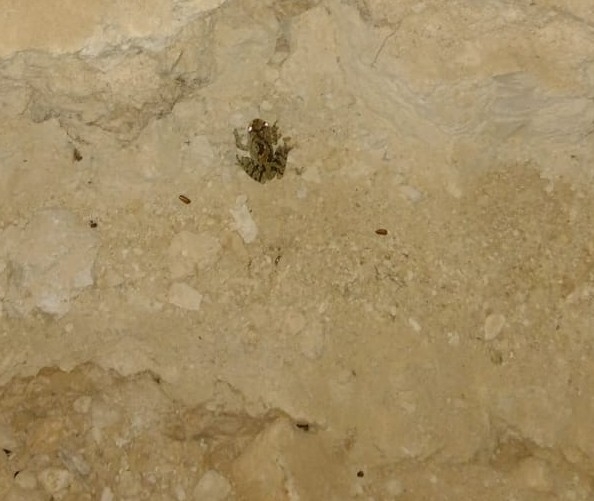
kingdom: Animalia
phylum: Chordata
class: Amphibia
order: Anura
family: Hylidae
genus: Smilisca
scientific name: Smilisca baudinii
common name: Mexican smilisca
